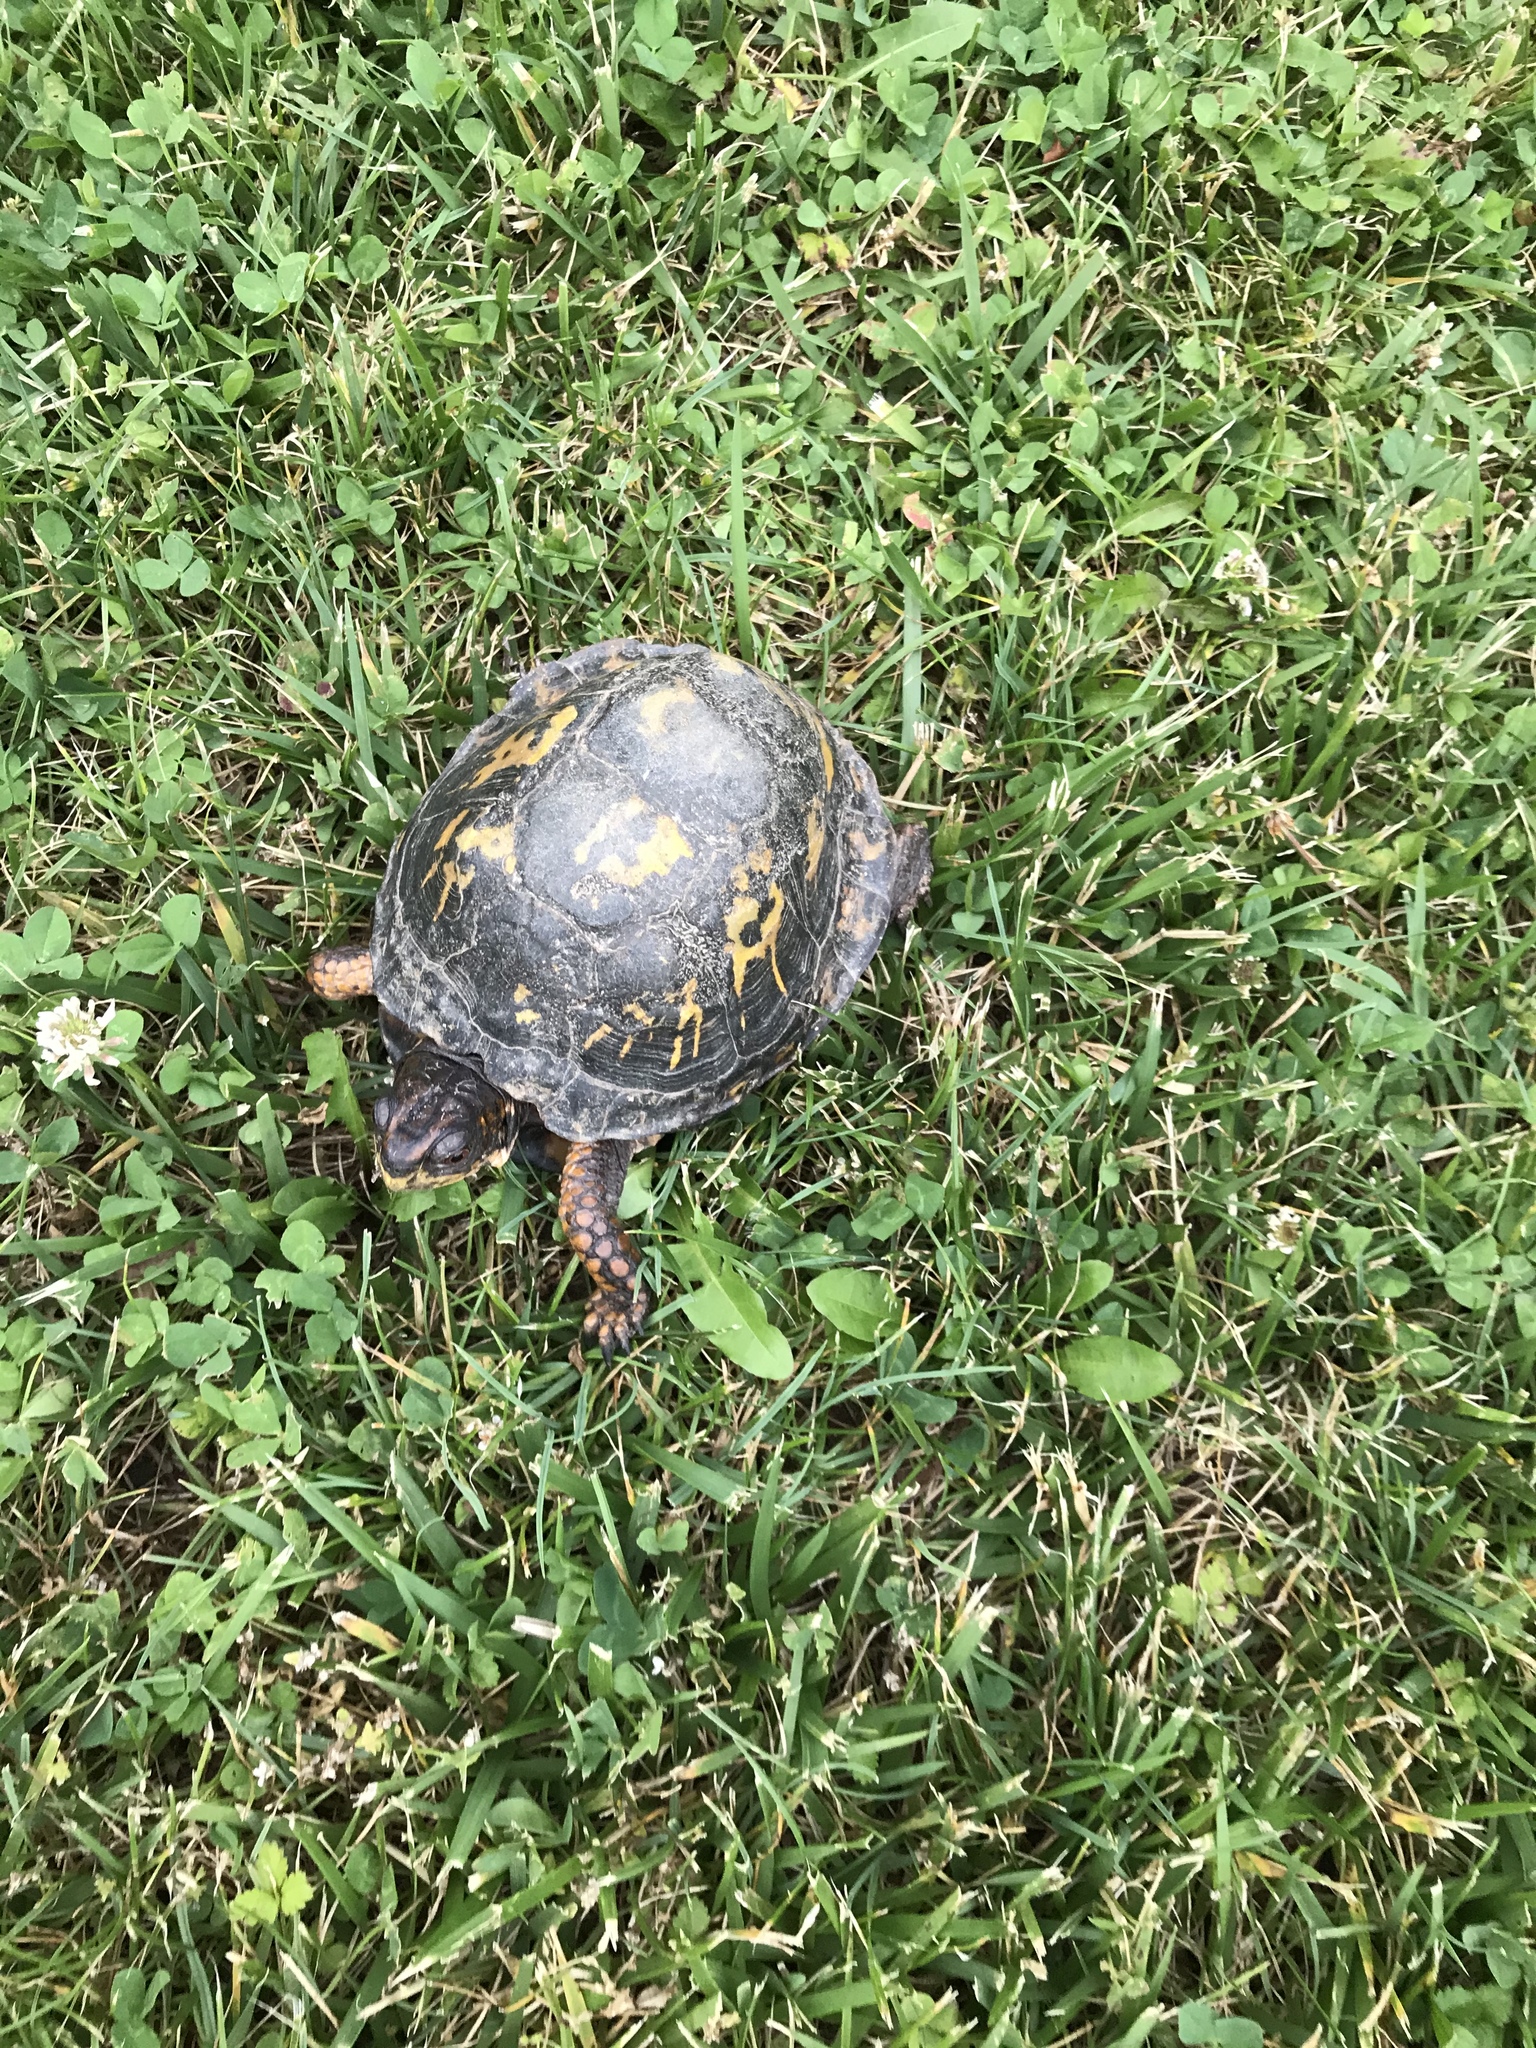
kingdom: Animalia
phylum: Chordata
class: Testudines
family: Emydidae
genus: Terrapene
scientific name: Terrapene carolina
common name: Common box turtle
